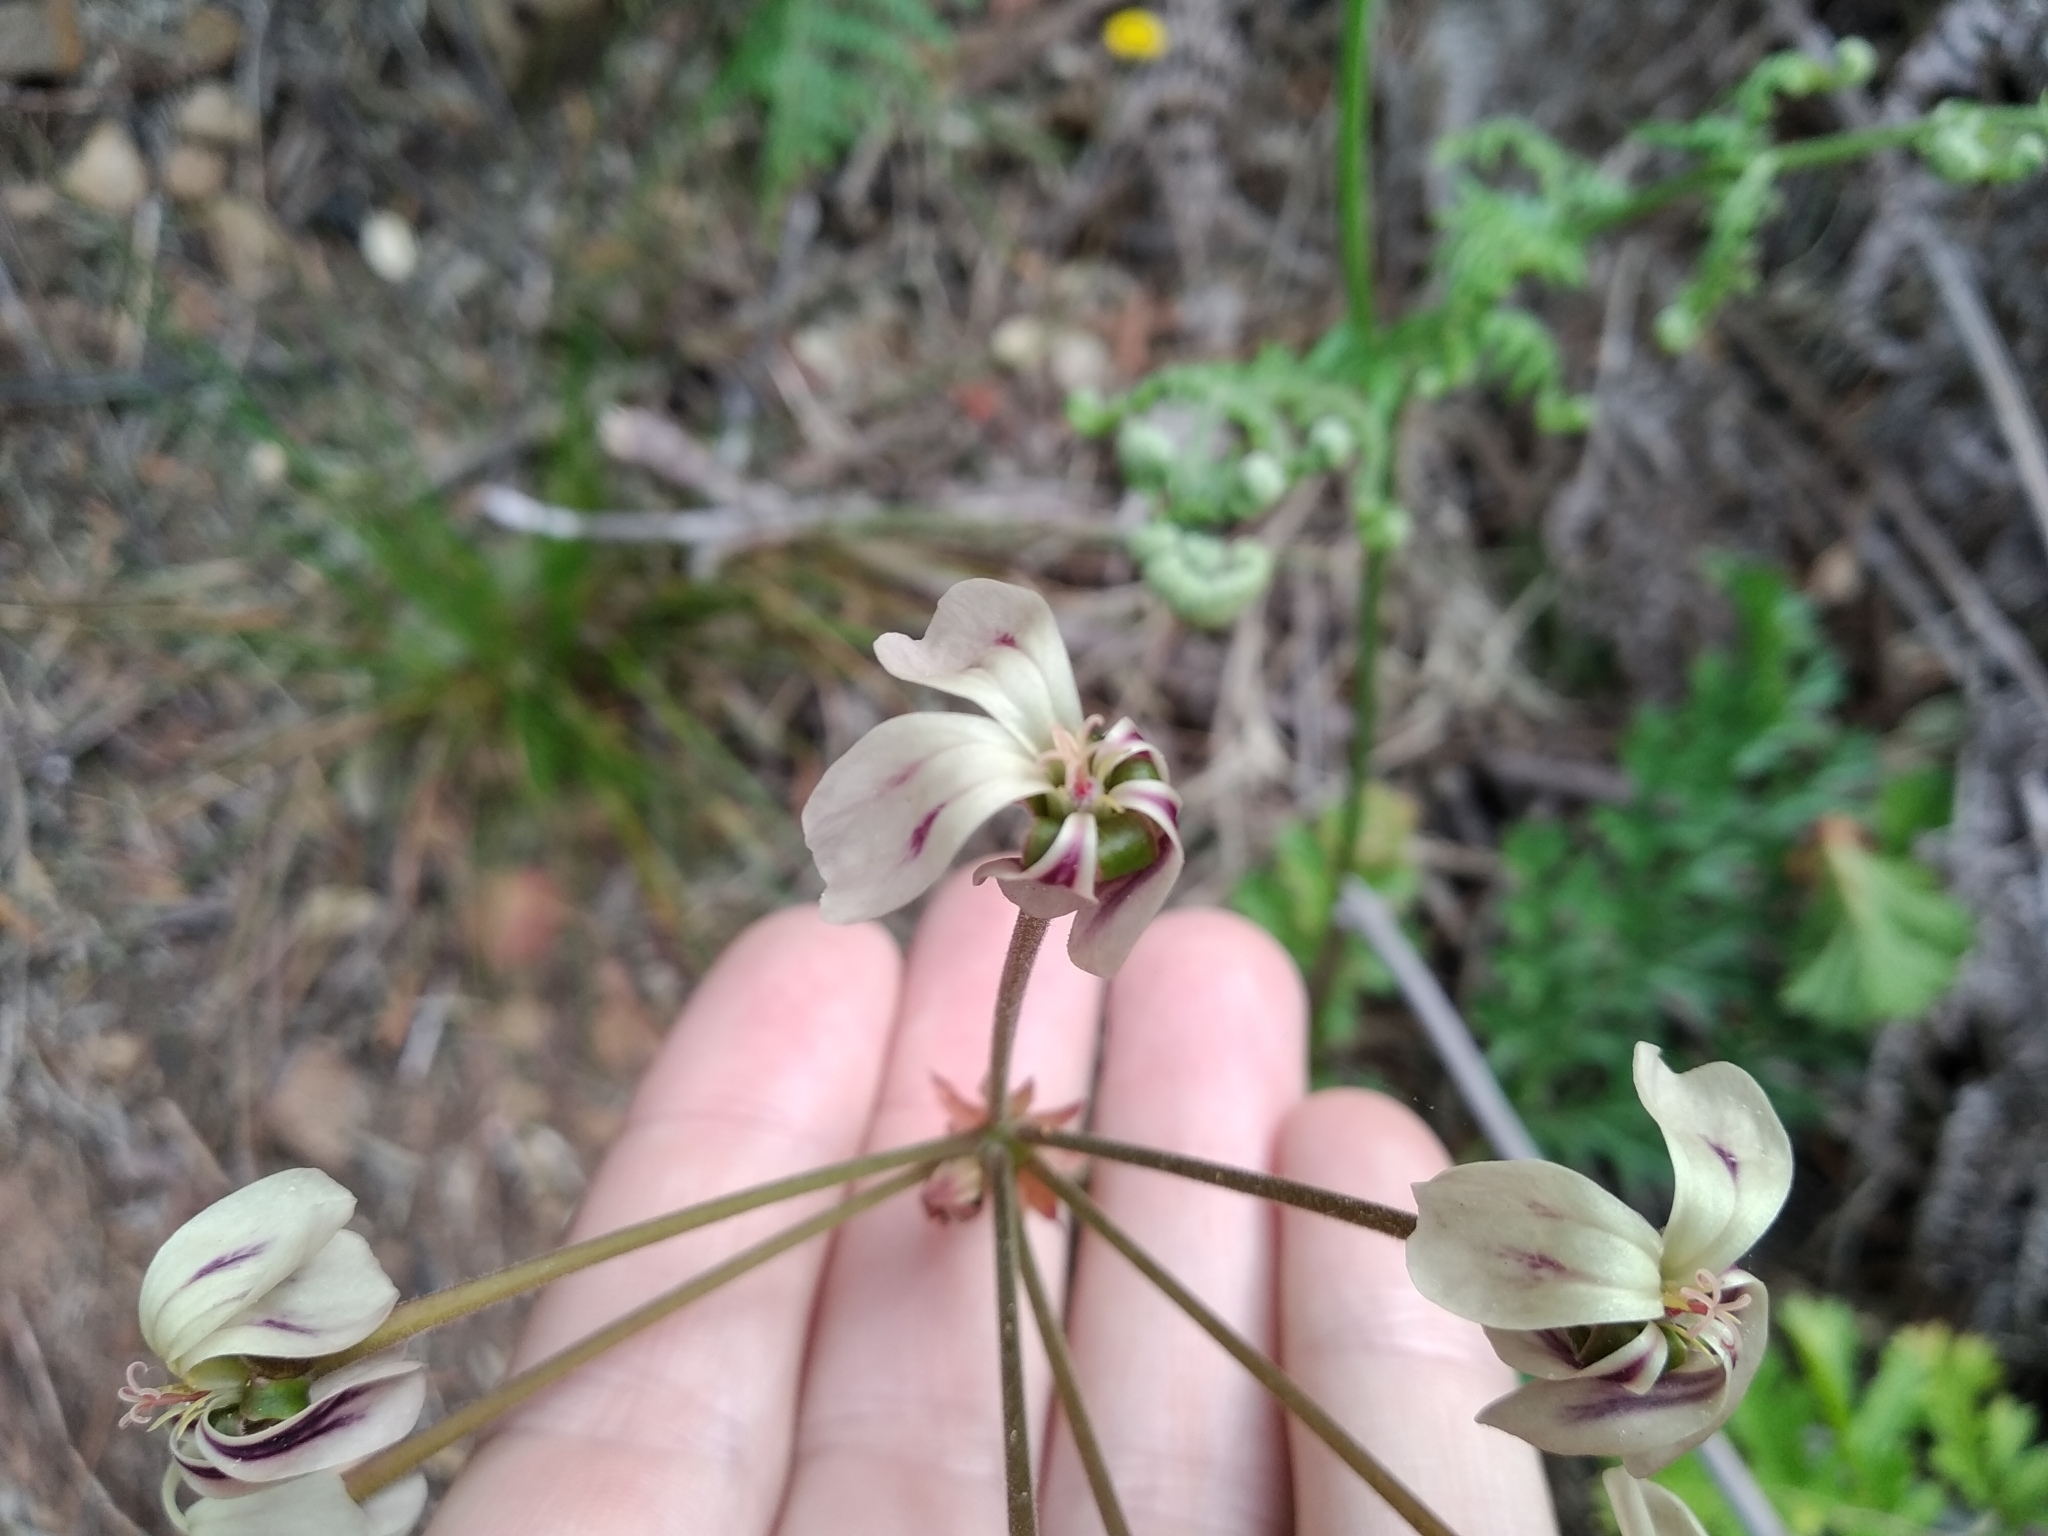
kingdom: Plantae
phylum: Tracheophyta
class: Magnoliopsida
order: Geraniales
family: Geraniaceae
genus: Pelargonium
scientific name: Pelargonium triste
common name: Night-scent pelargonium
